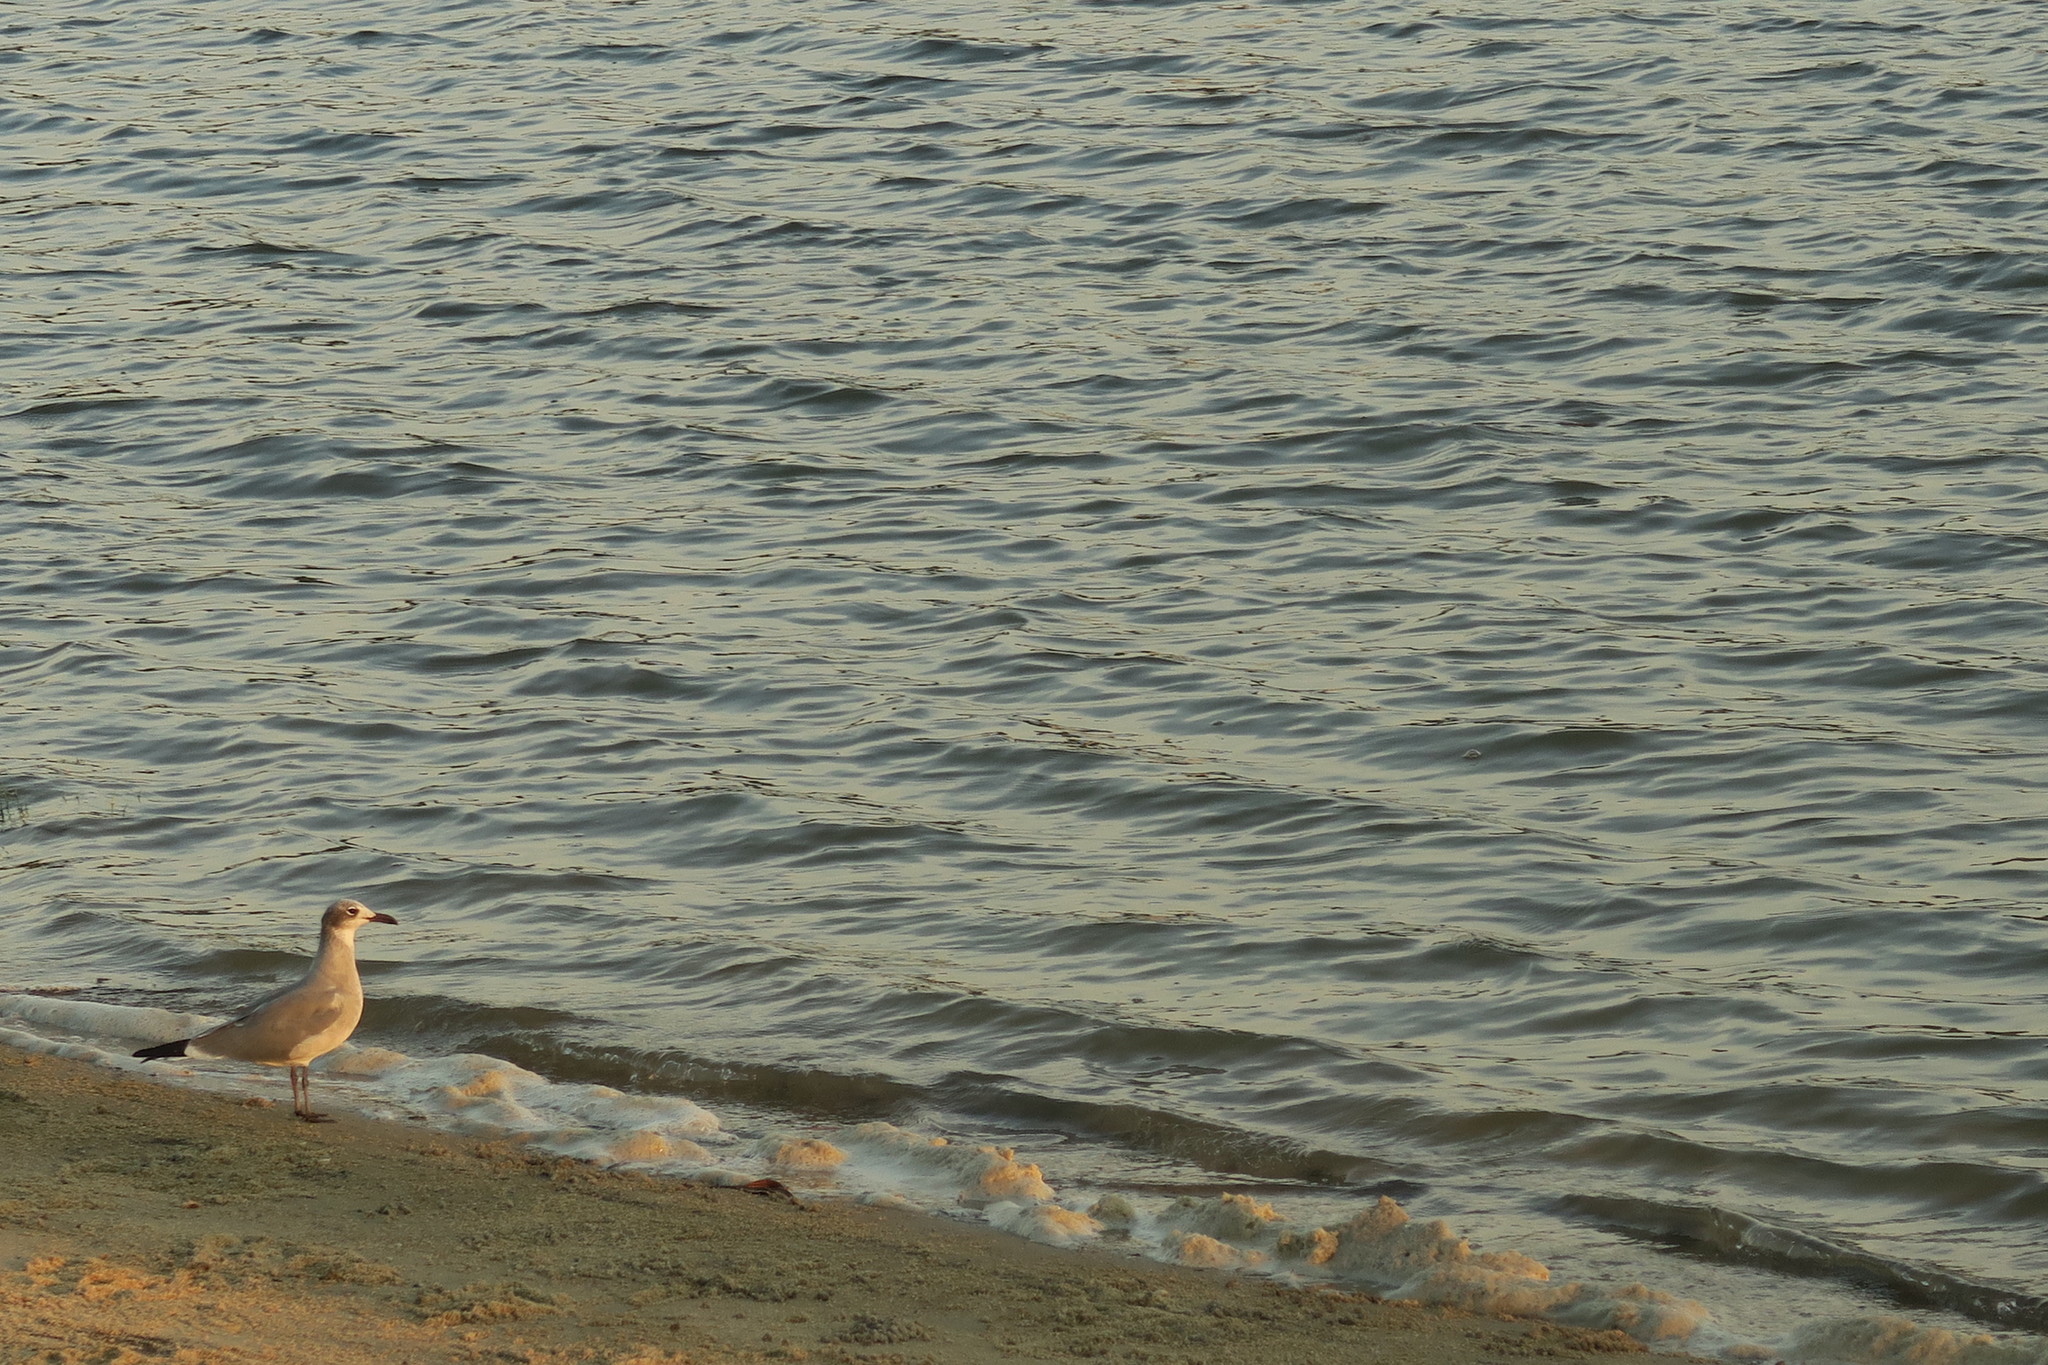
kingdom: Animalia
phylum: Chordata
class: Aves
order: Charadriiformes
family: Laridae
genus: Leucophaeus
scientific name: Leucophaeus atricilla
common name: Laughing gull
